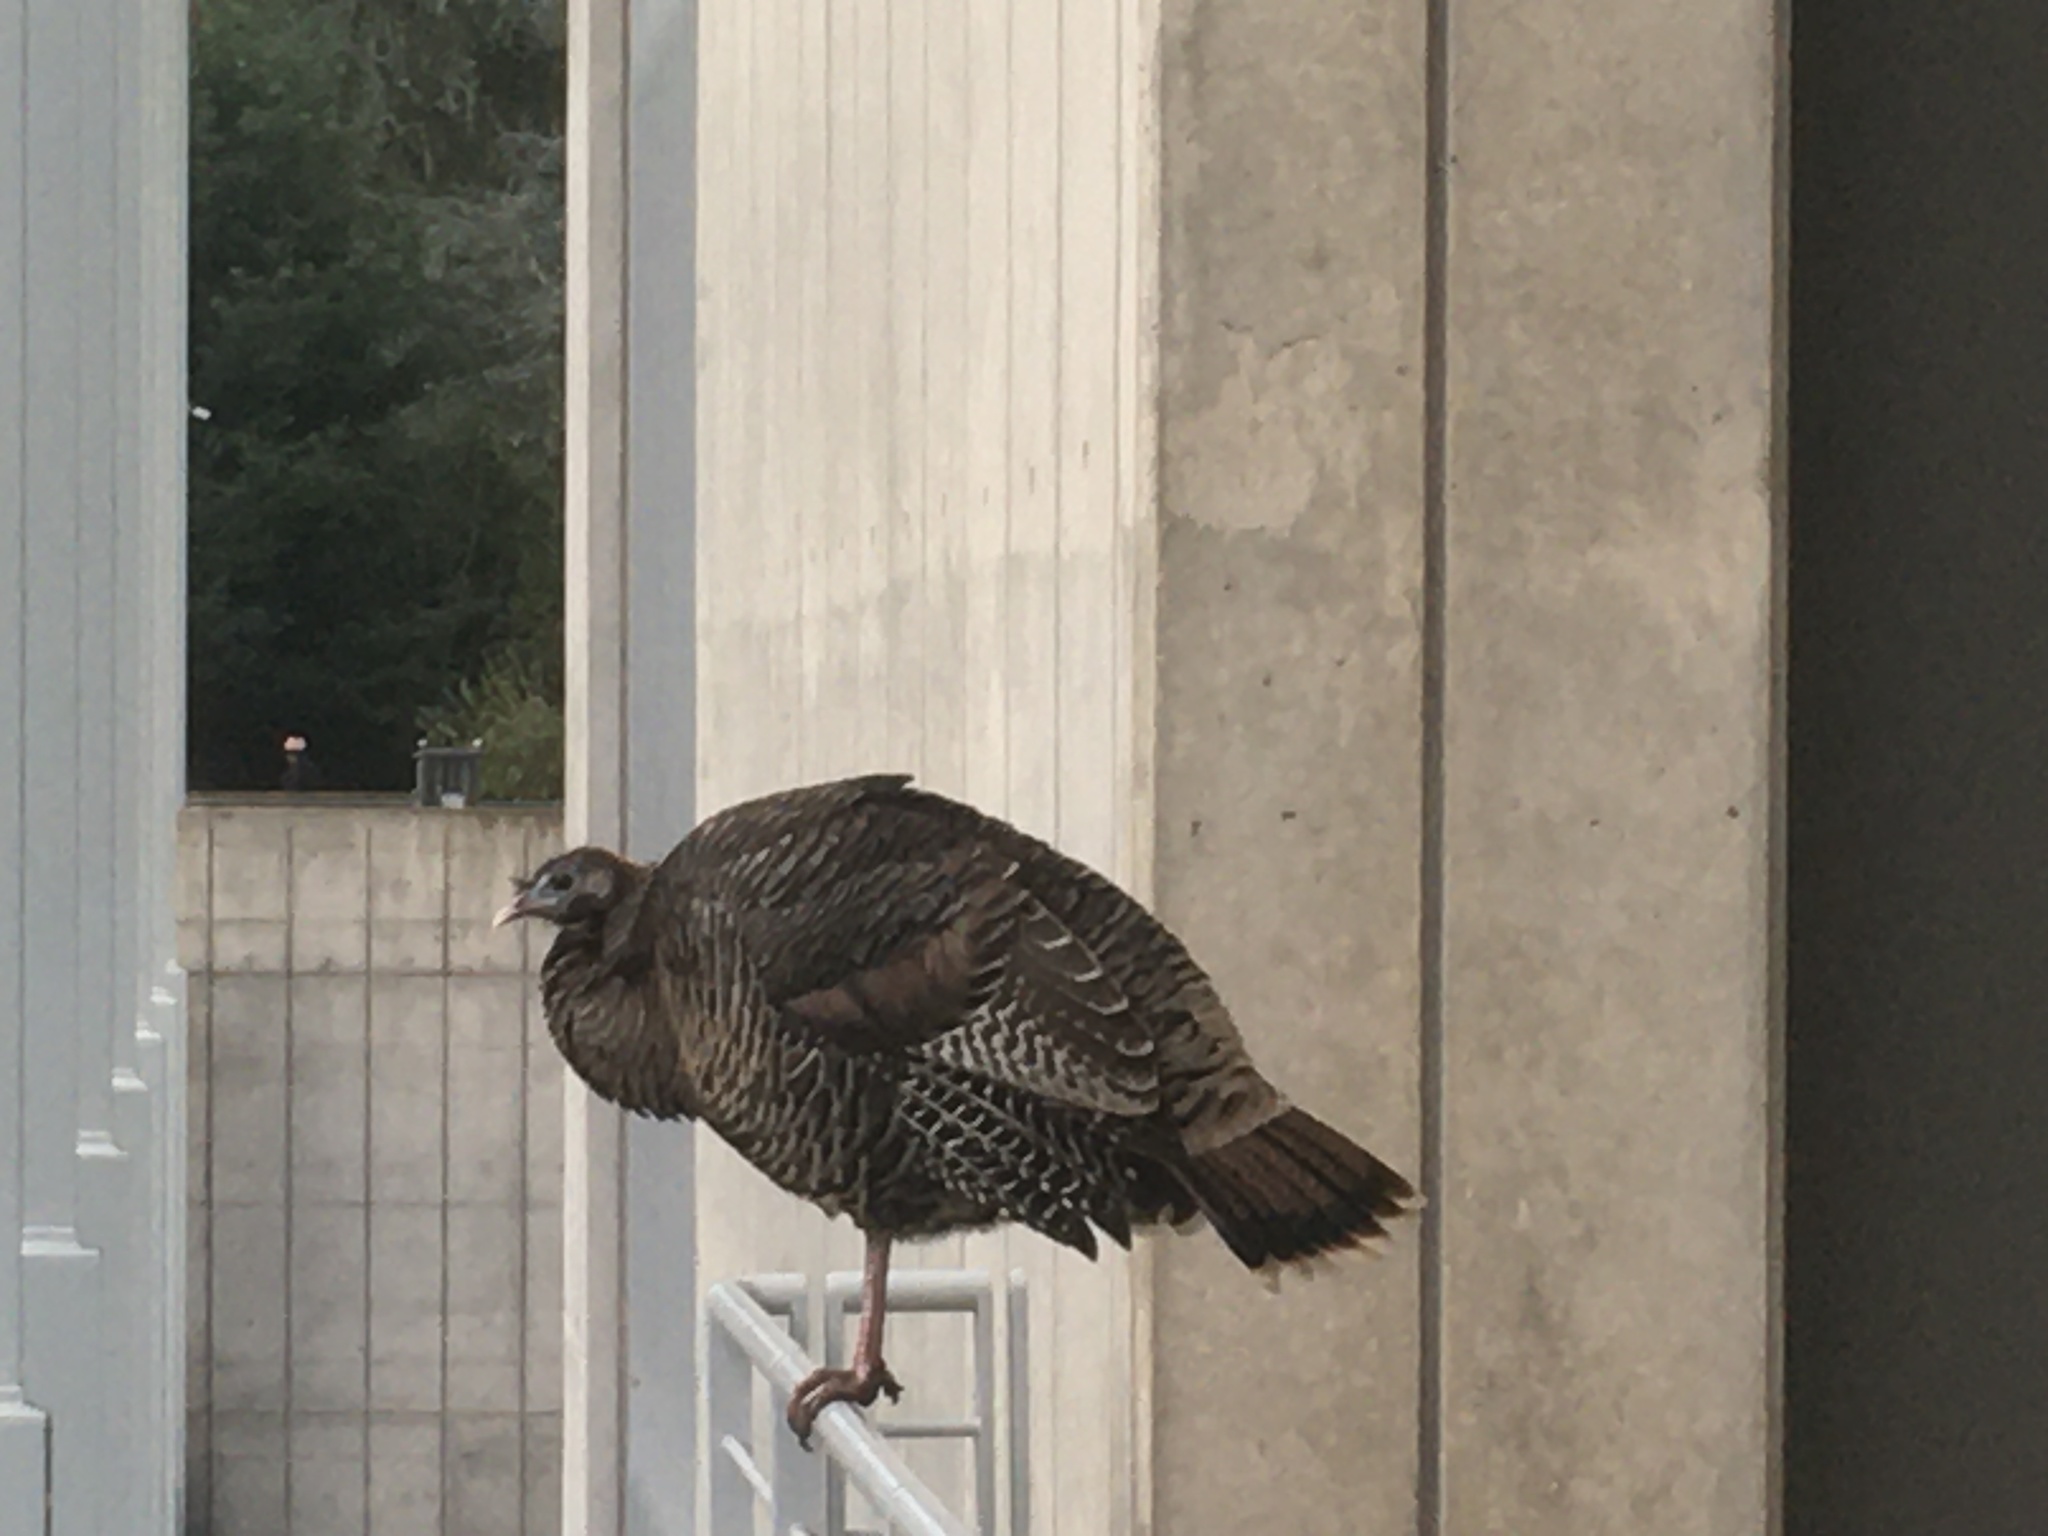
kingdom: Animalia
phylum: Chordata
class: Aves
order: Galliformes
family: Phasianidae
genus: Meleagris
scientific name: Meleagris gallopavo
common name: Wild turkey
